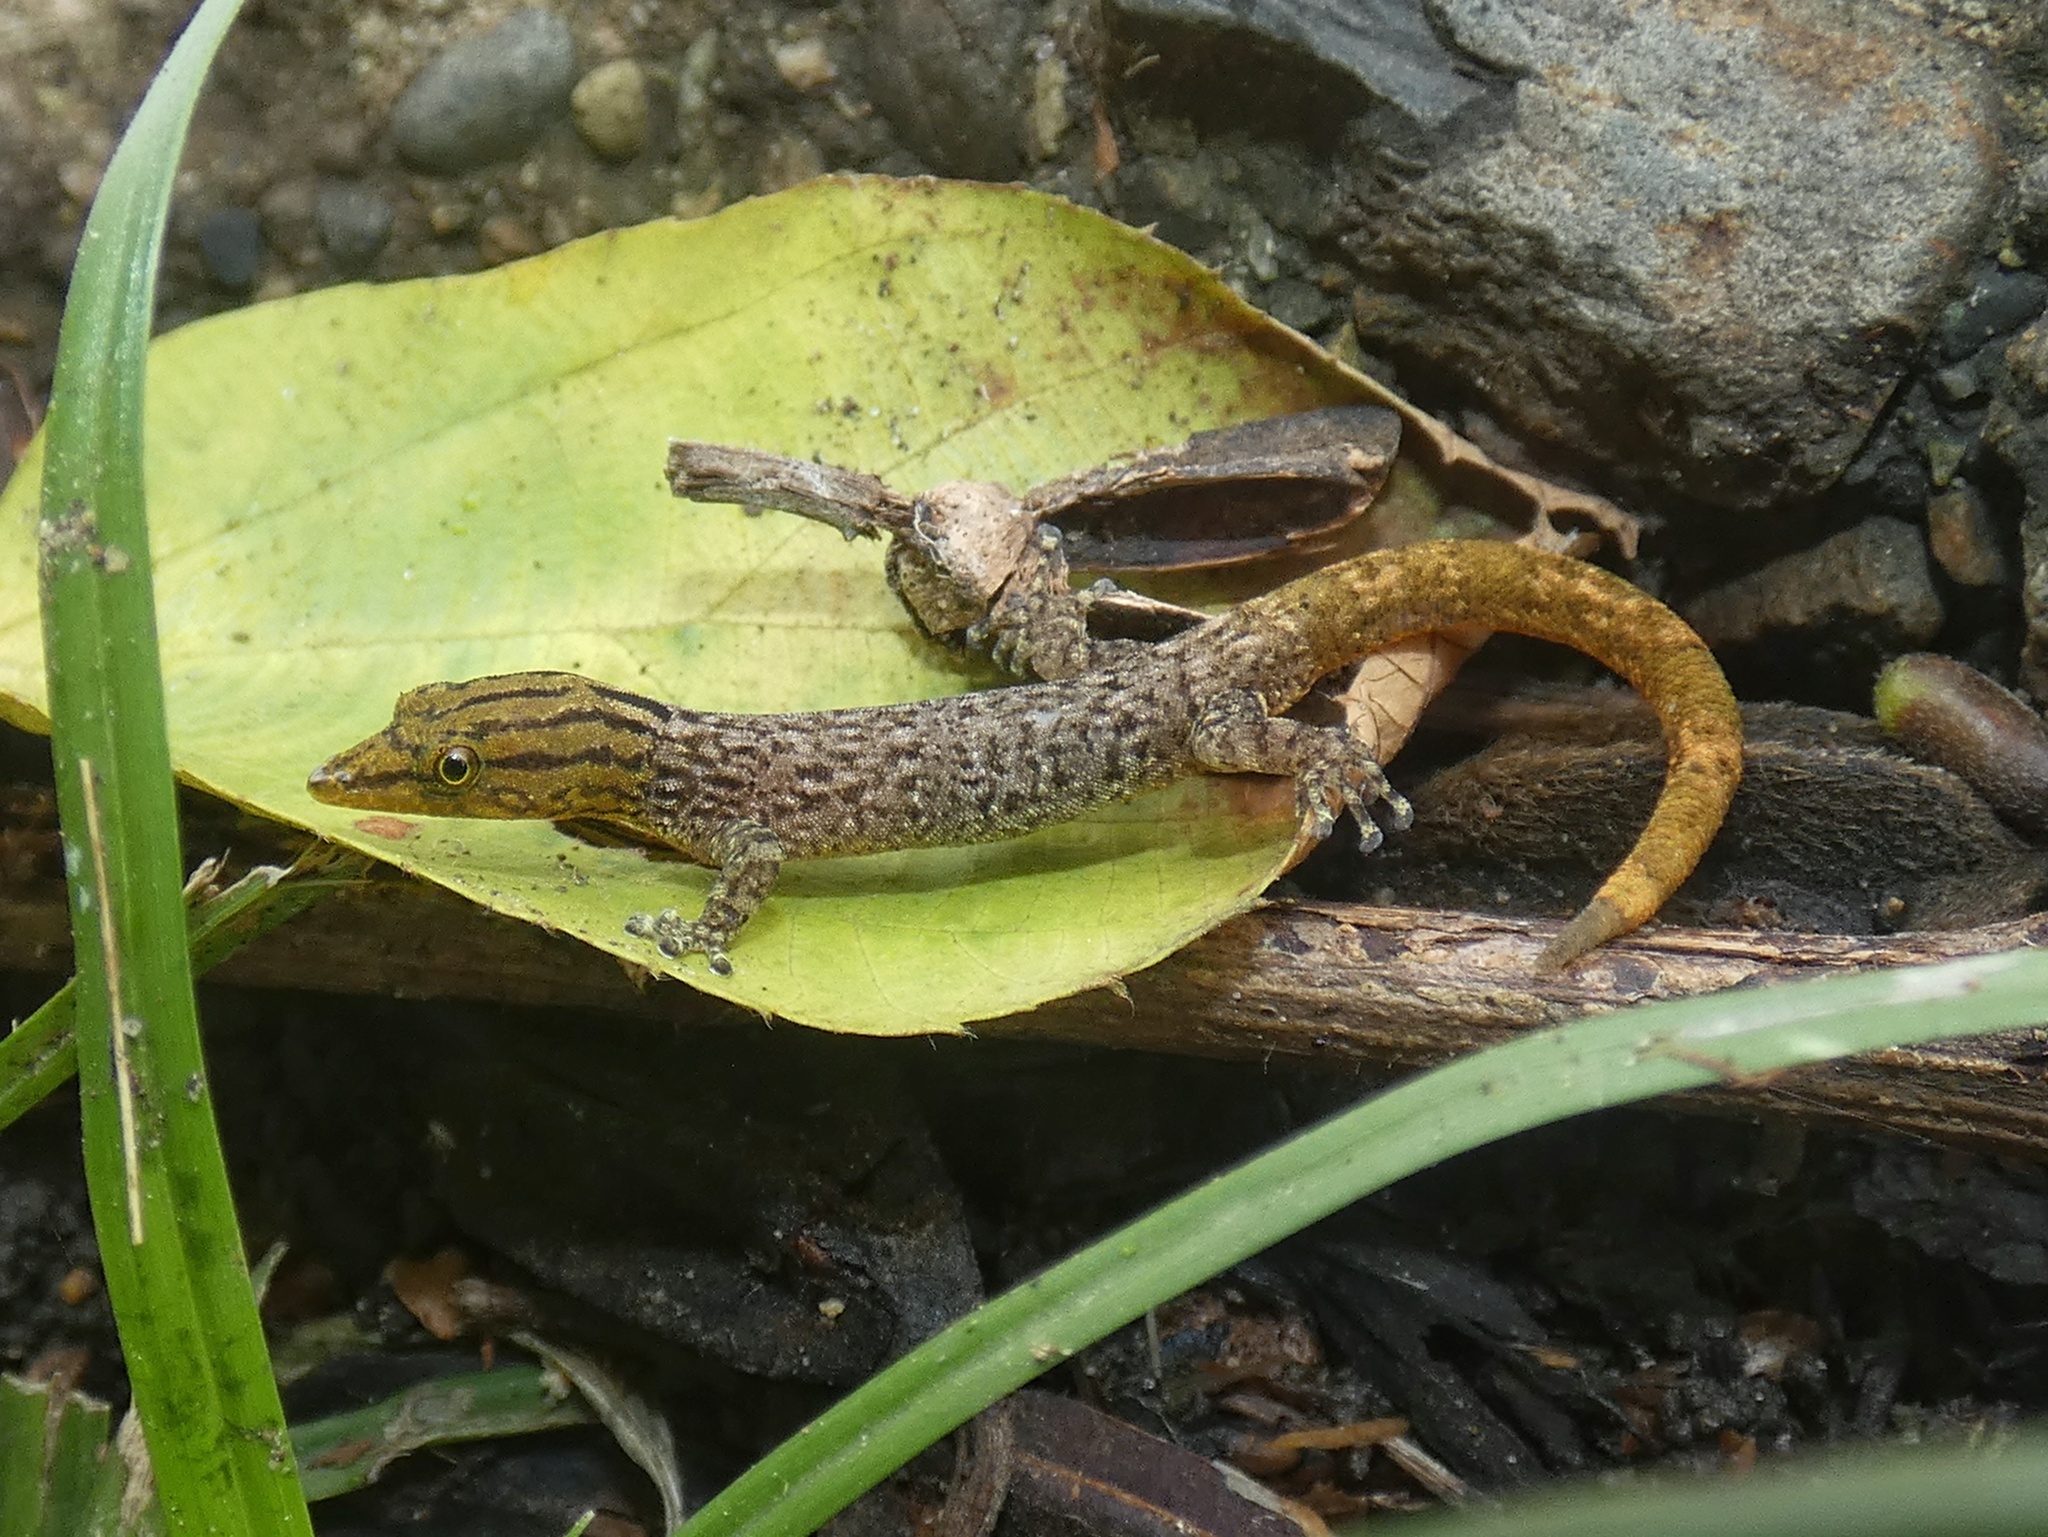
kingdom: Animalia
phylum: Chordata
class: Squamata
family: Sphaerodactylidae
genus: Sphaerodactylus
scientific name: Sphaerodactylus lineolatus
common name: Panama least gecko
